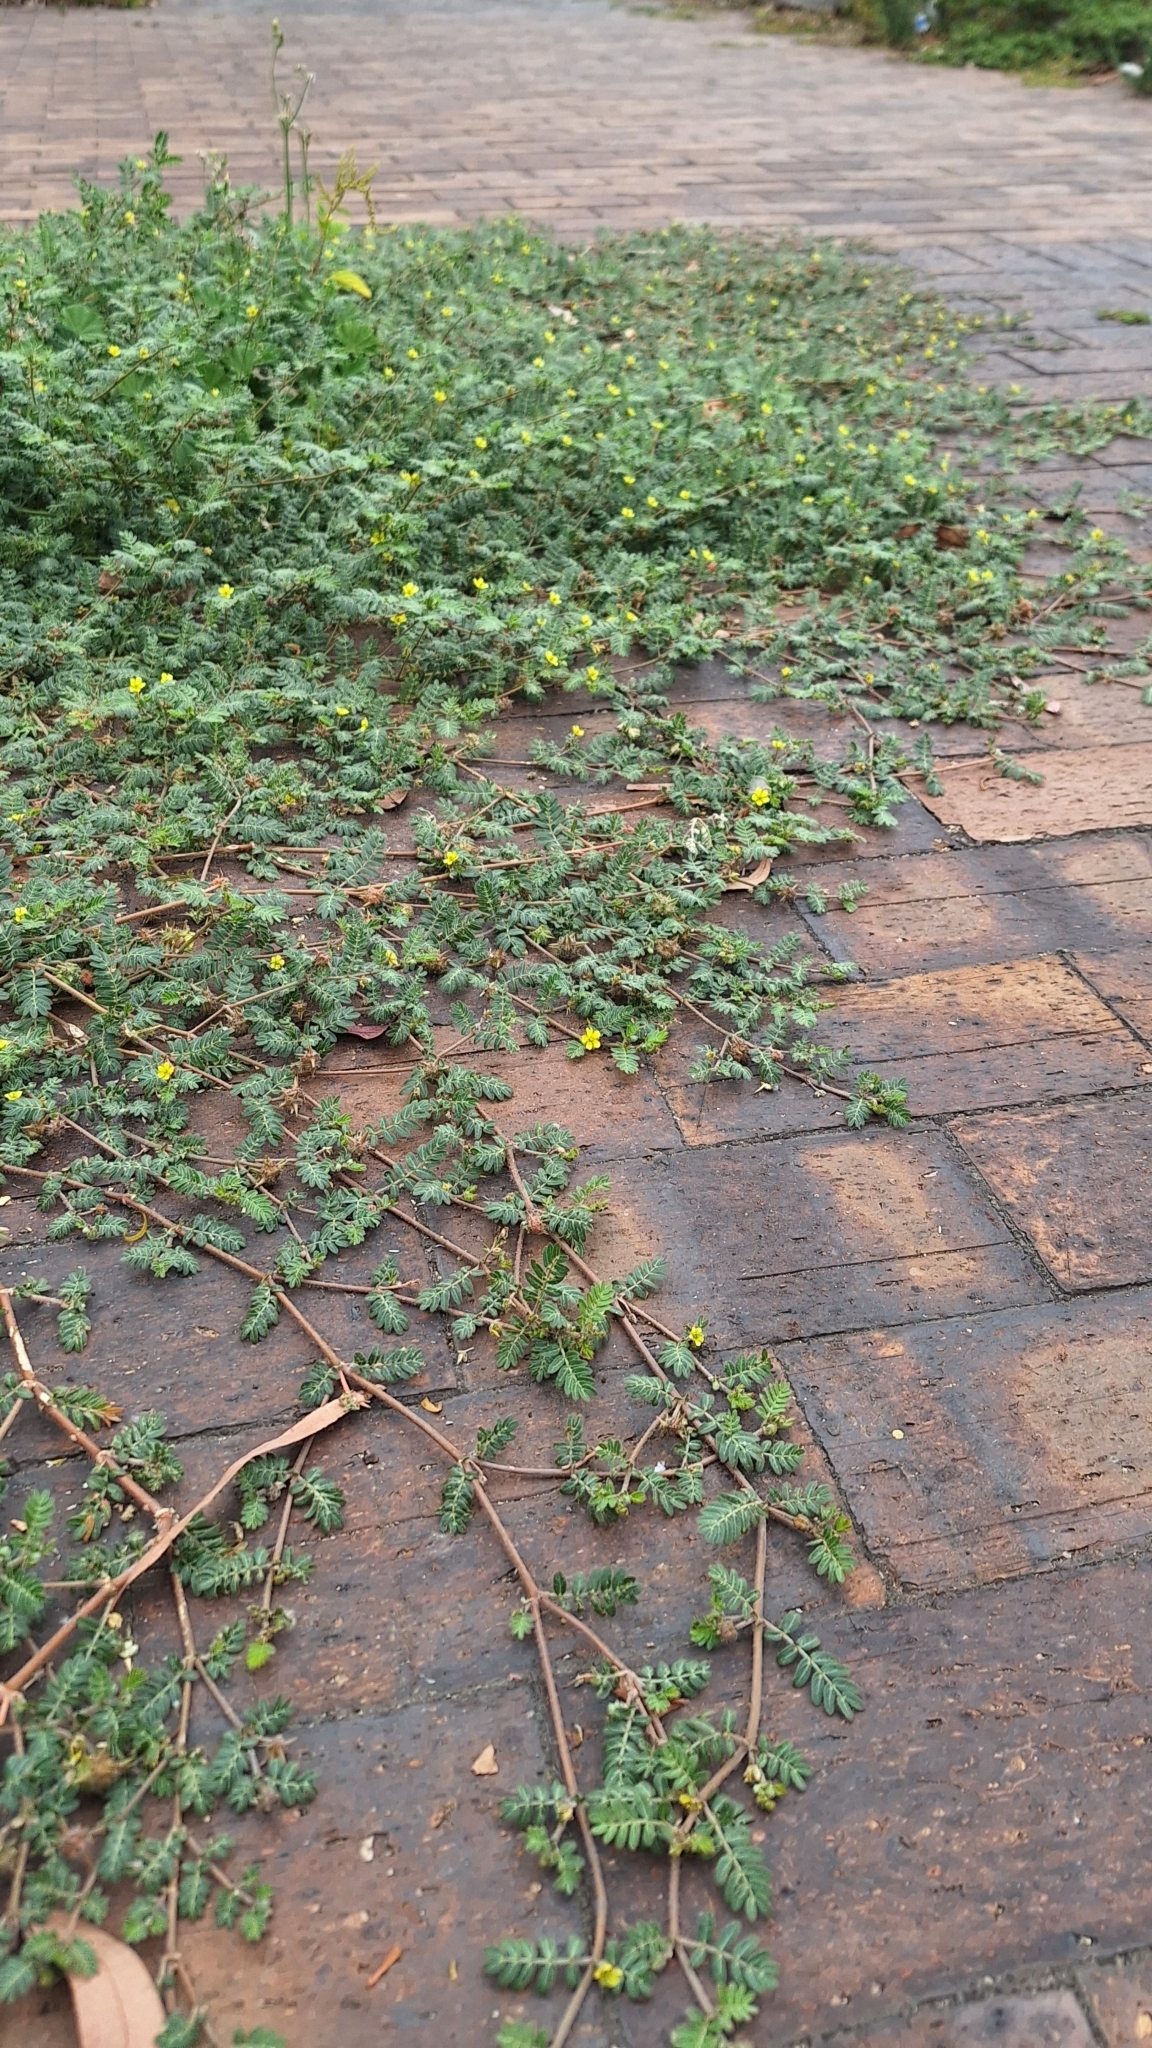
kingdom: Plantae
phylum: Tracheophyta
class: Magnoliopsida
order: Zygophyllales
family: Zygophyllaceae
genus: Tribulus
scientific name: Tribulus terrestris
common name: Puncturevine
